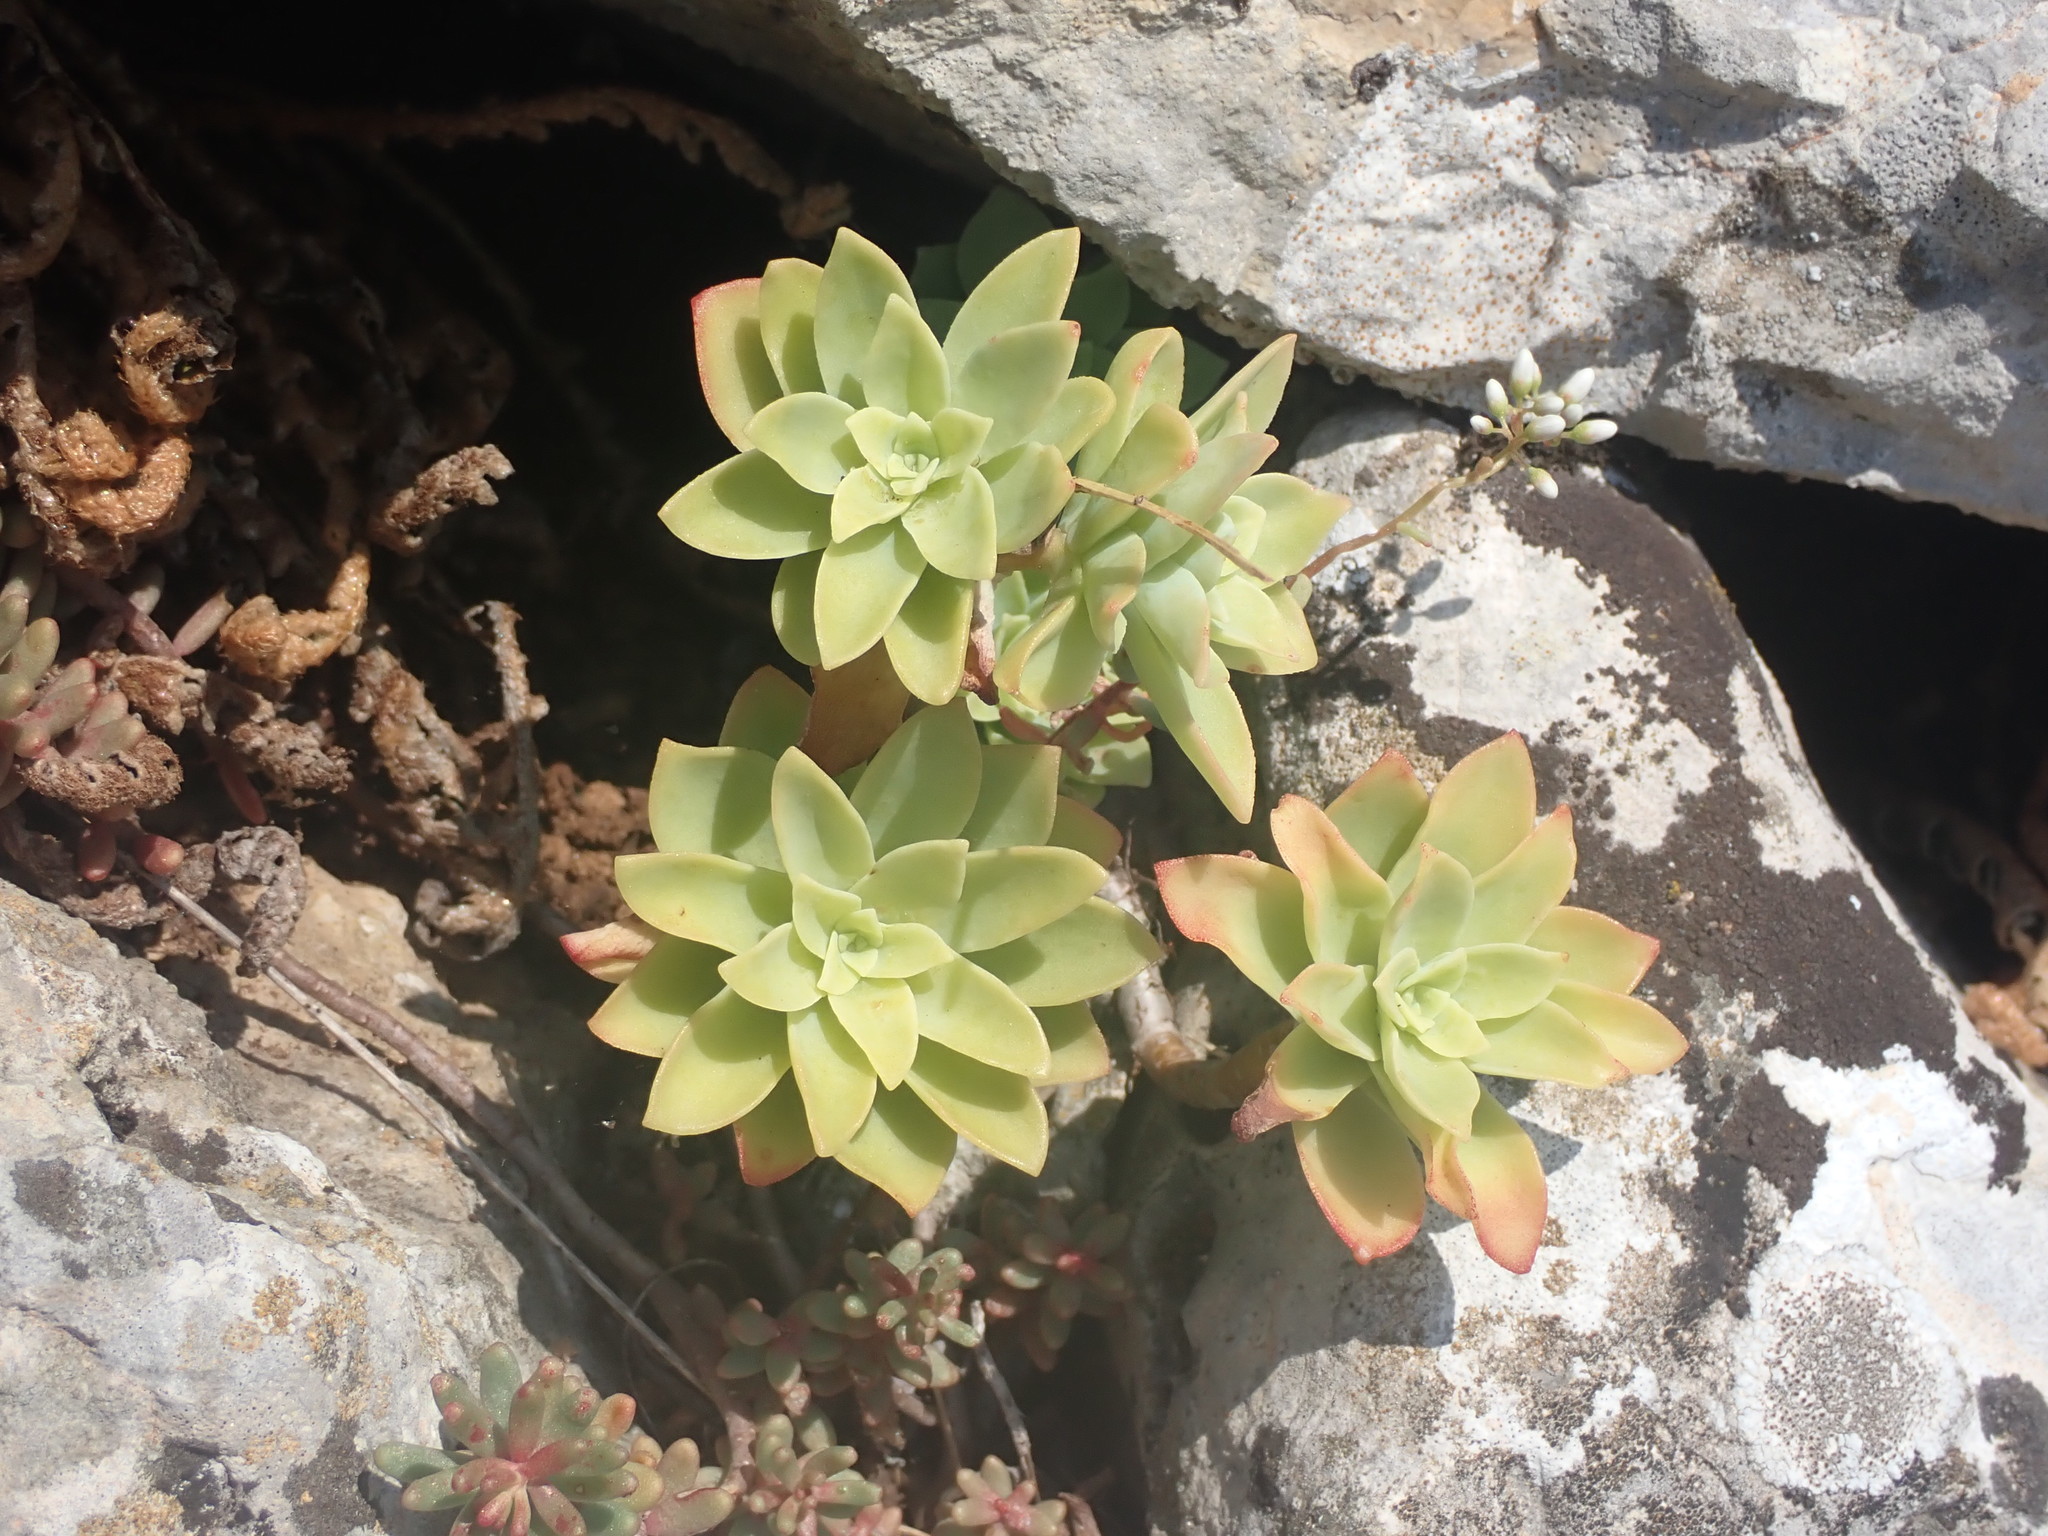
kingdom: Plantae
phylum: Tracheophyta
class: Magnoliopsida
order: Saxifragales
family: Crassulaceae
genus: Sedum
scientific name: Sedum palmeri
